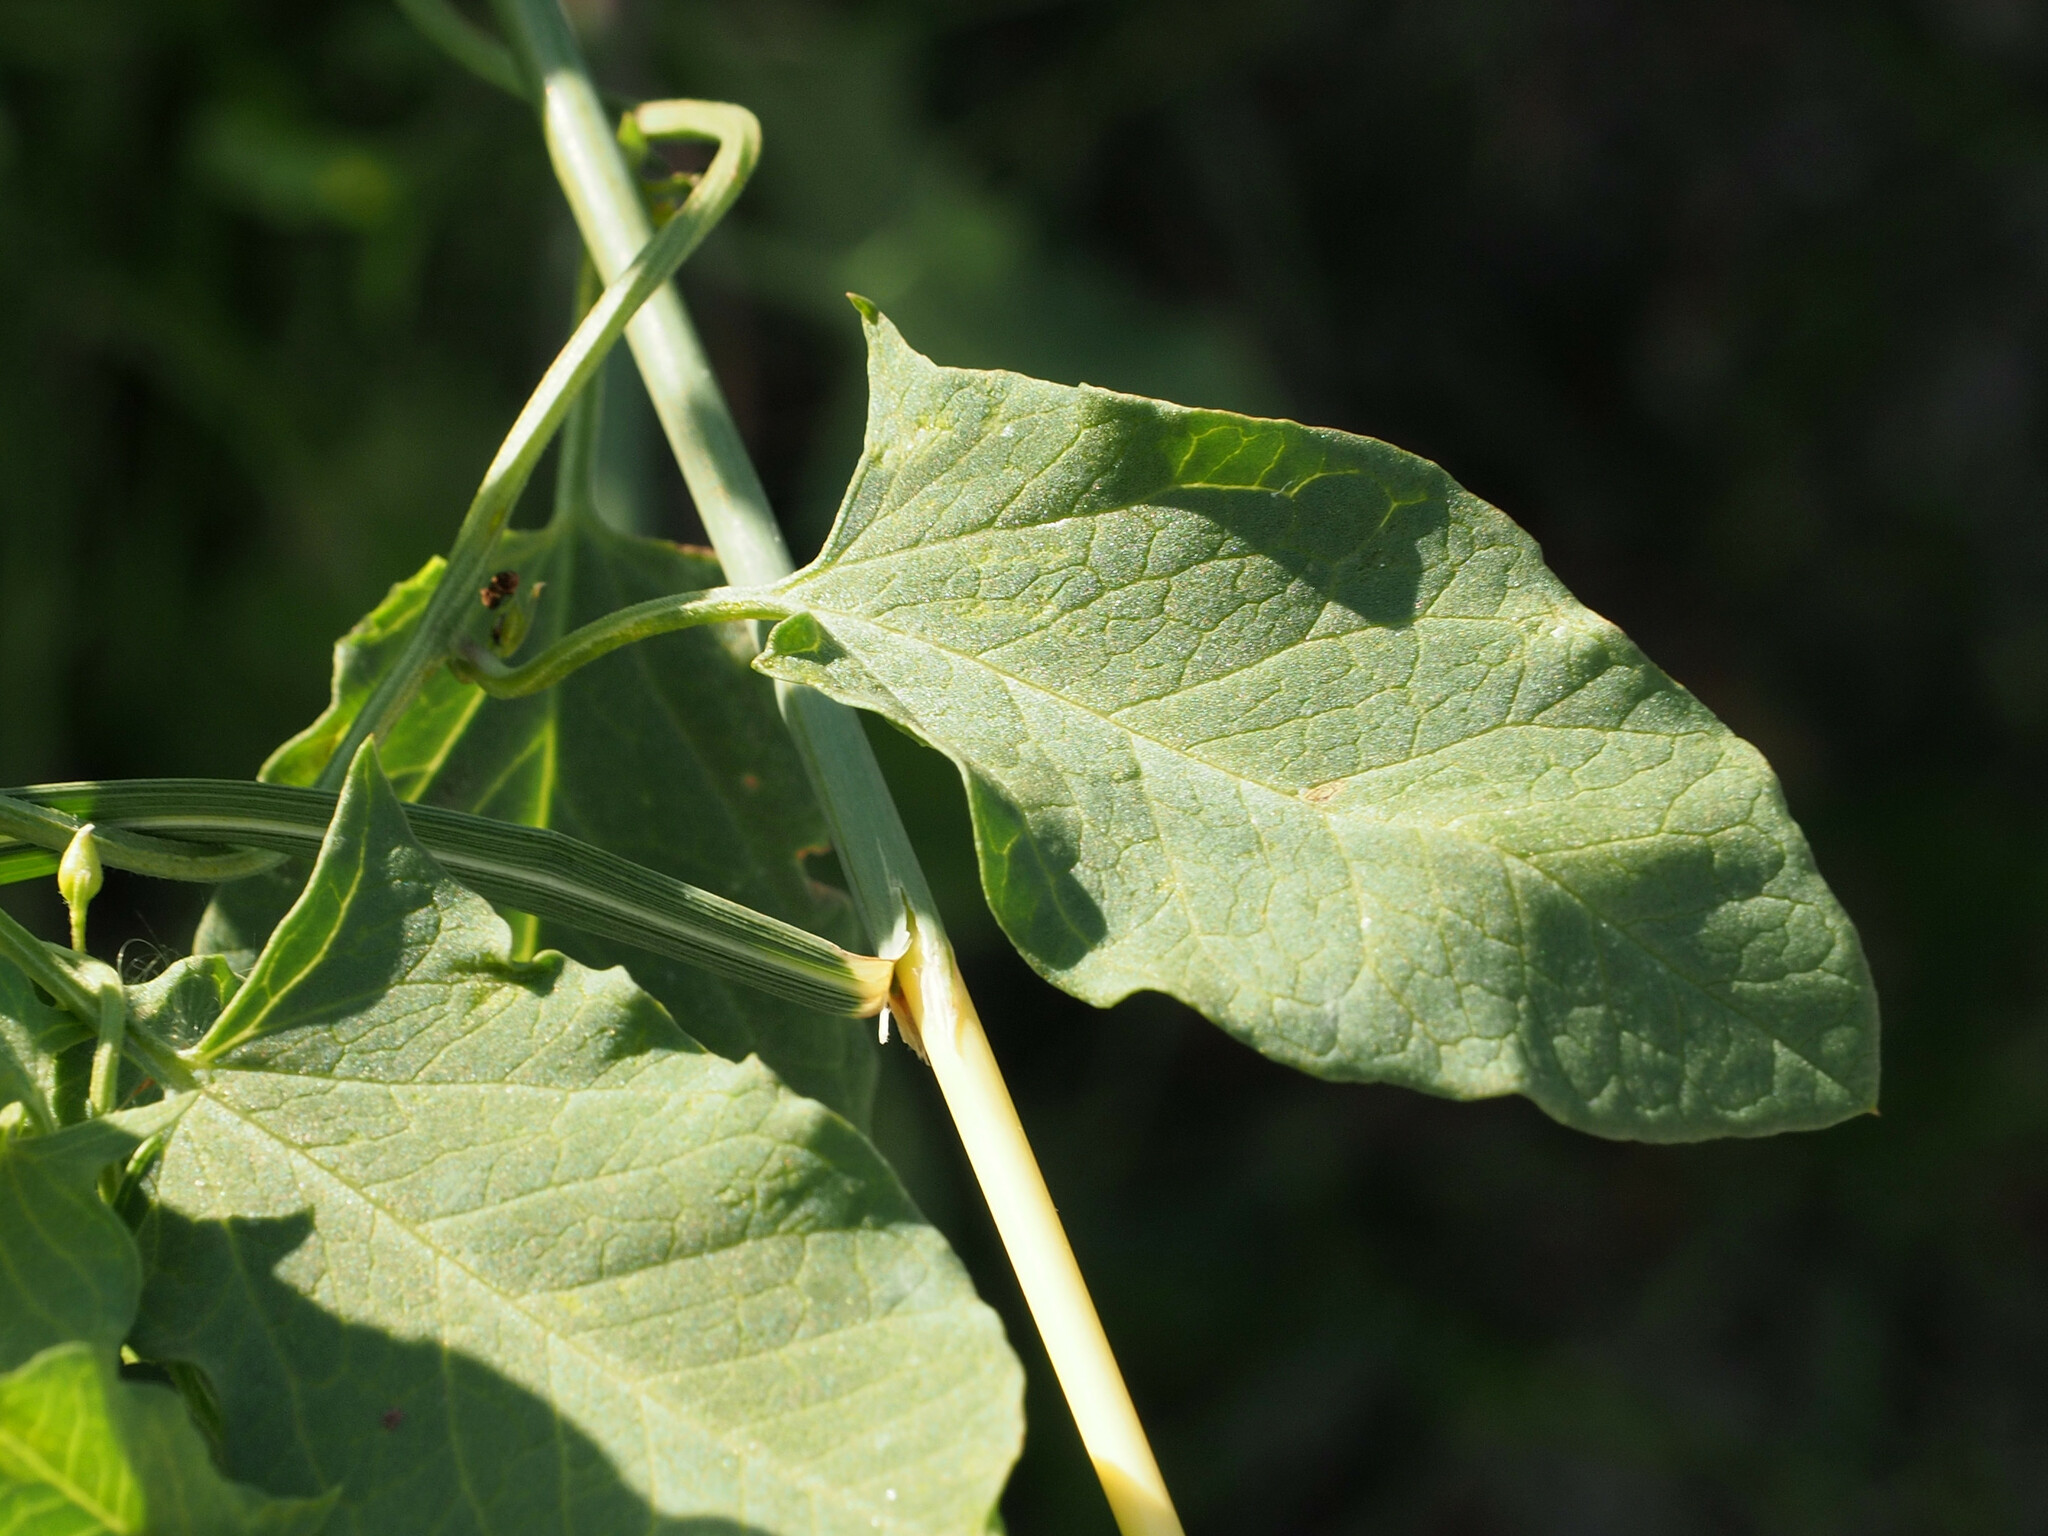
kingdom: Plantae
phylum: Tracheophyta
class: Magnoliopsida
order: Solanales
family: Convolvulaceae
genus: Convolvulus
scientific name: Convolvulus arvensis
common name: Field bindweed
